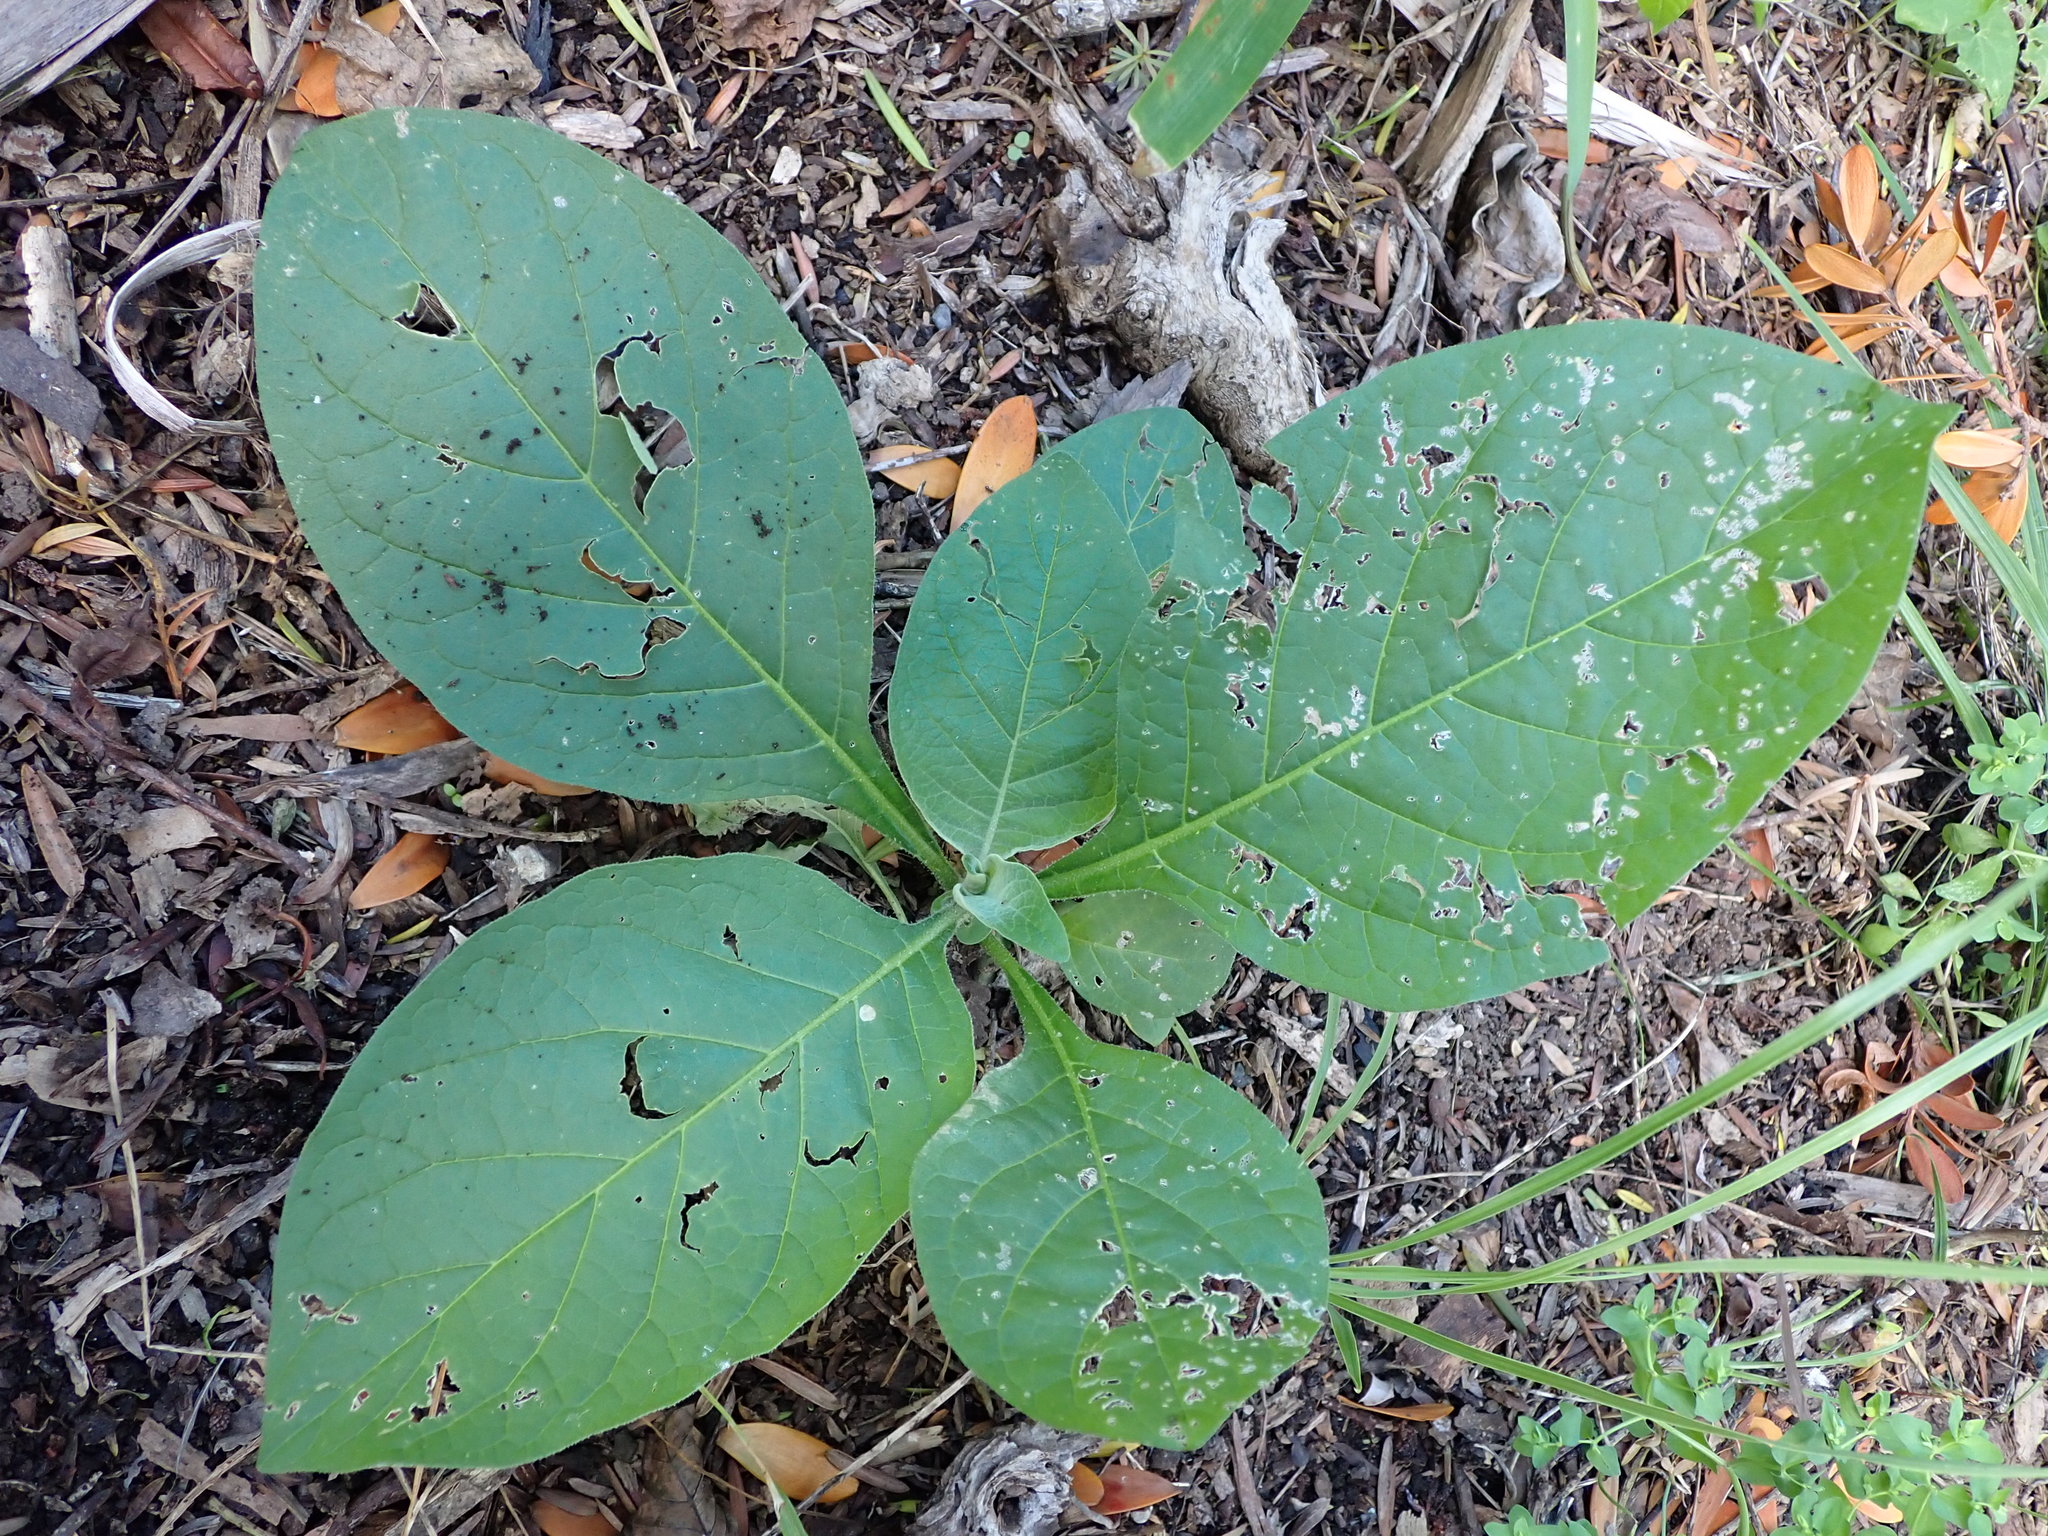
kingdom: Plantae
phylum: Tracheophyta
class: Magnoliopsida
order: Solanales
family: Solanaceae
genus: Solanum
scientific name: Solanum mauritianum
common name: Earleaf nightshade
